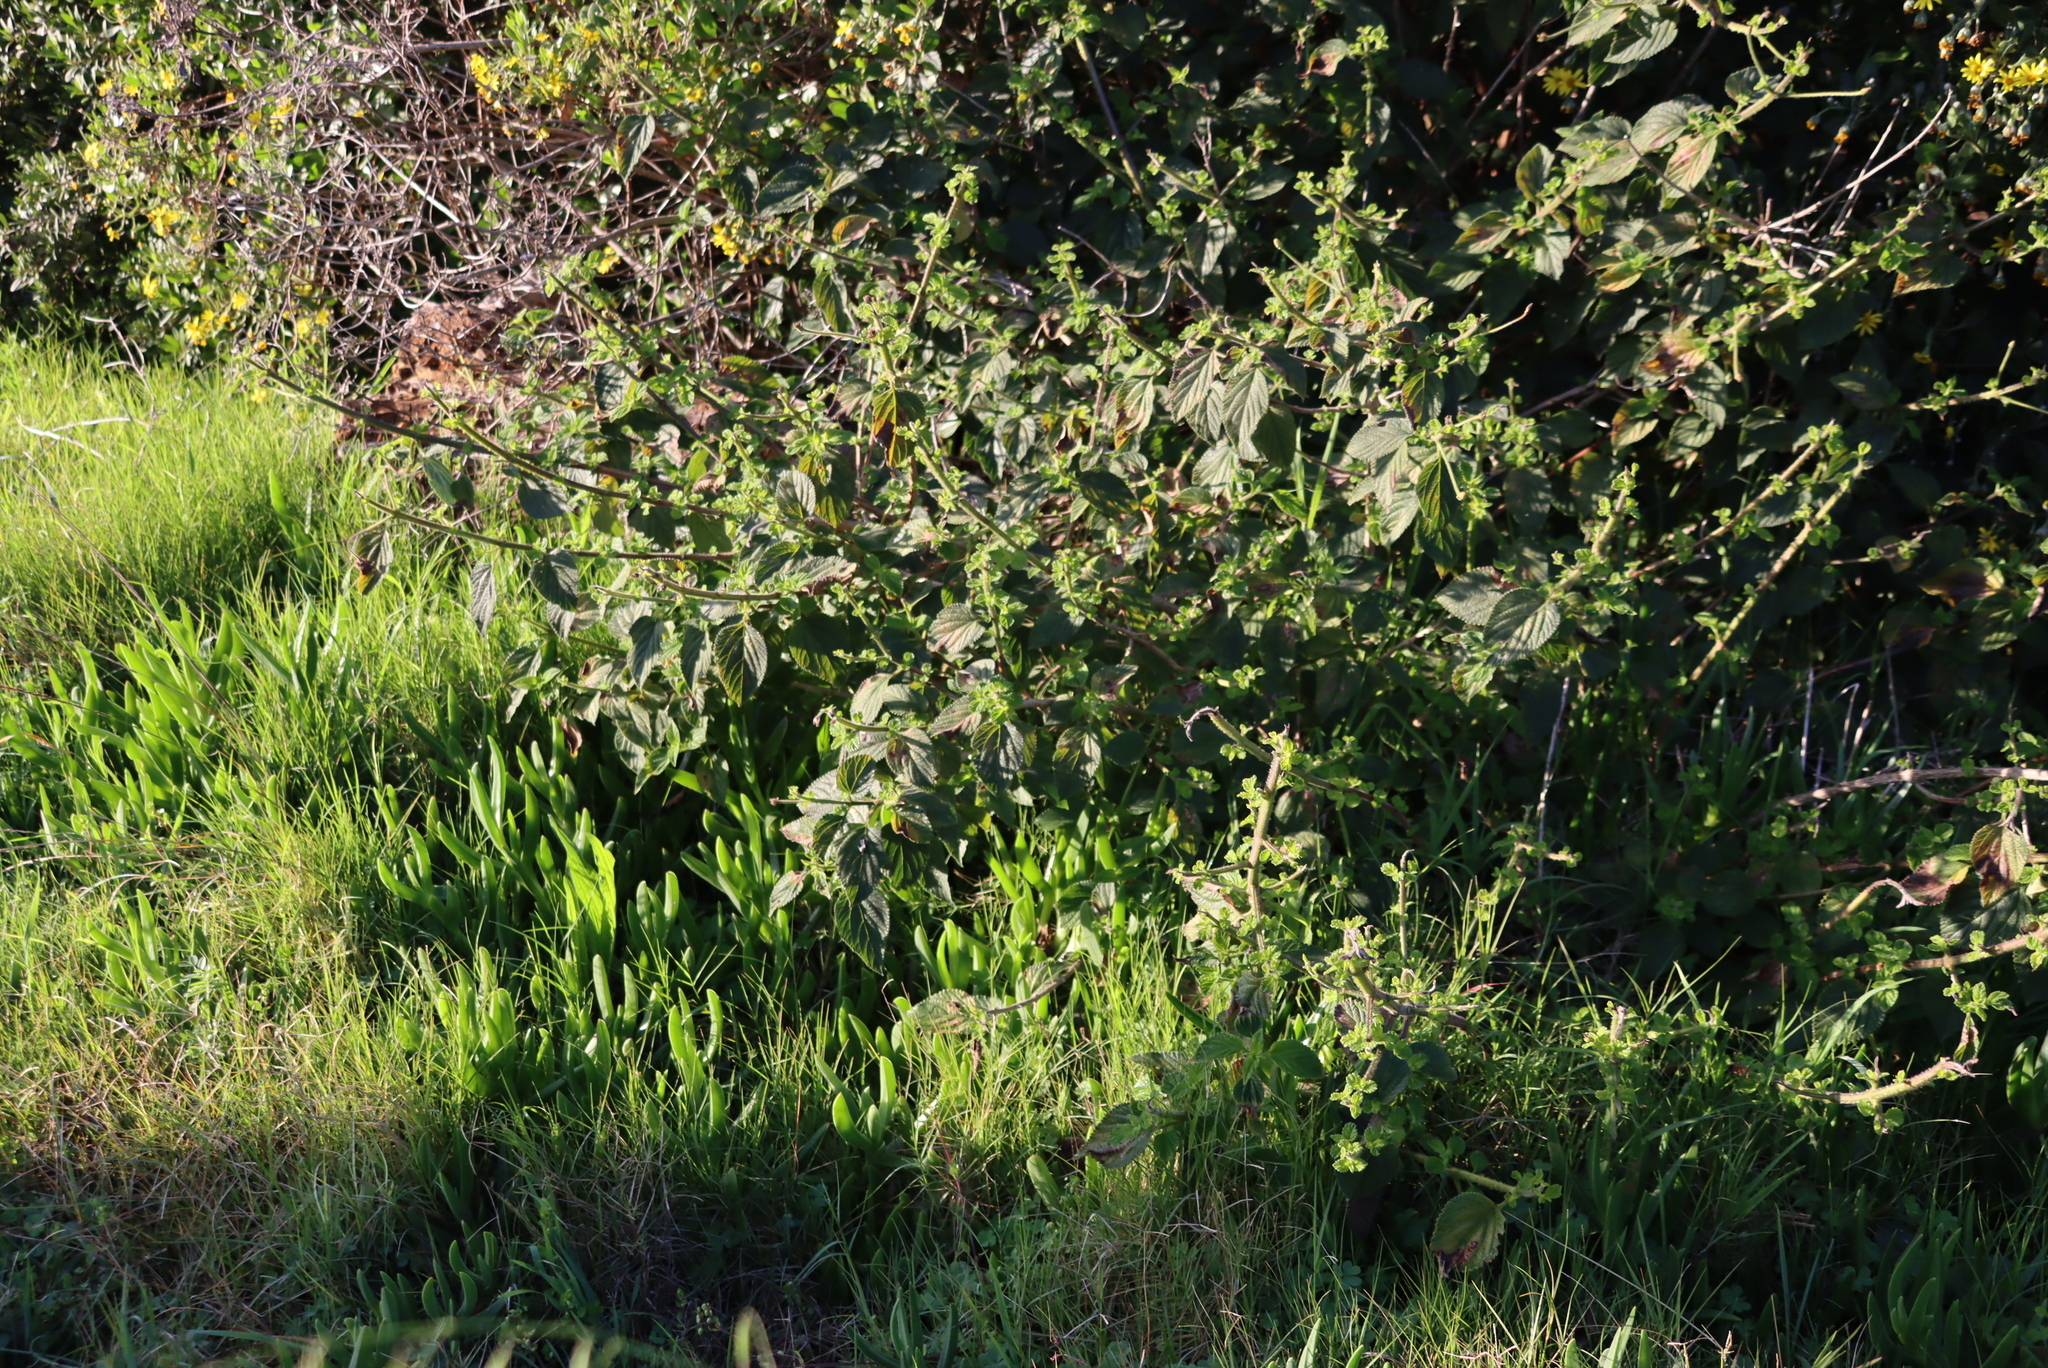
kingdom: Plantae
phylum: Tracheophyta
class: Magnoliopsida
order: Lamiales
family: Verbenaceae
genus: Lantana
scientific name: Lantana camara
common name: Lantana
